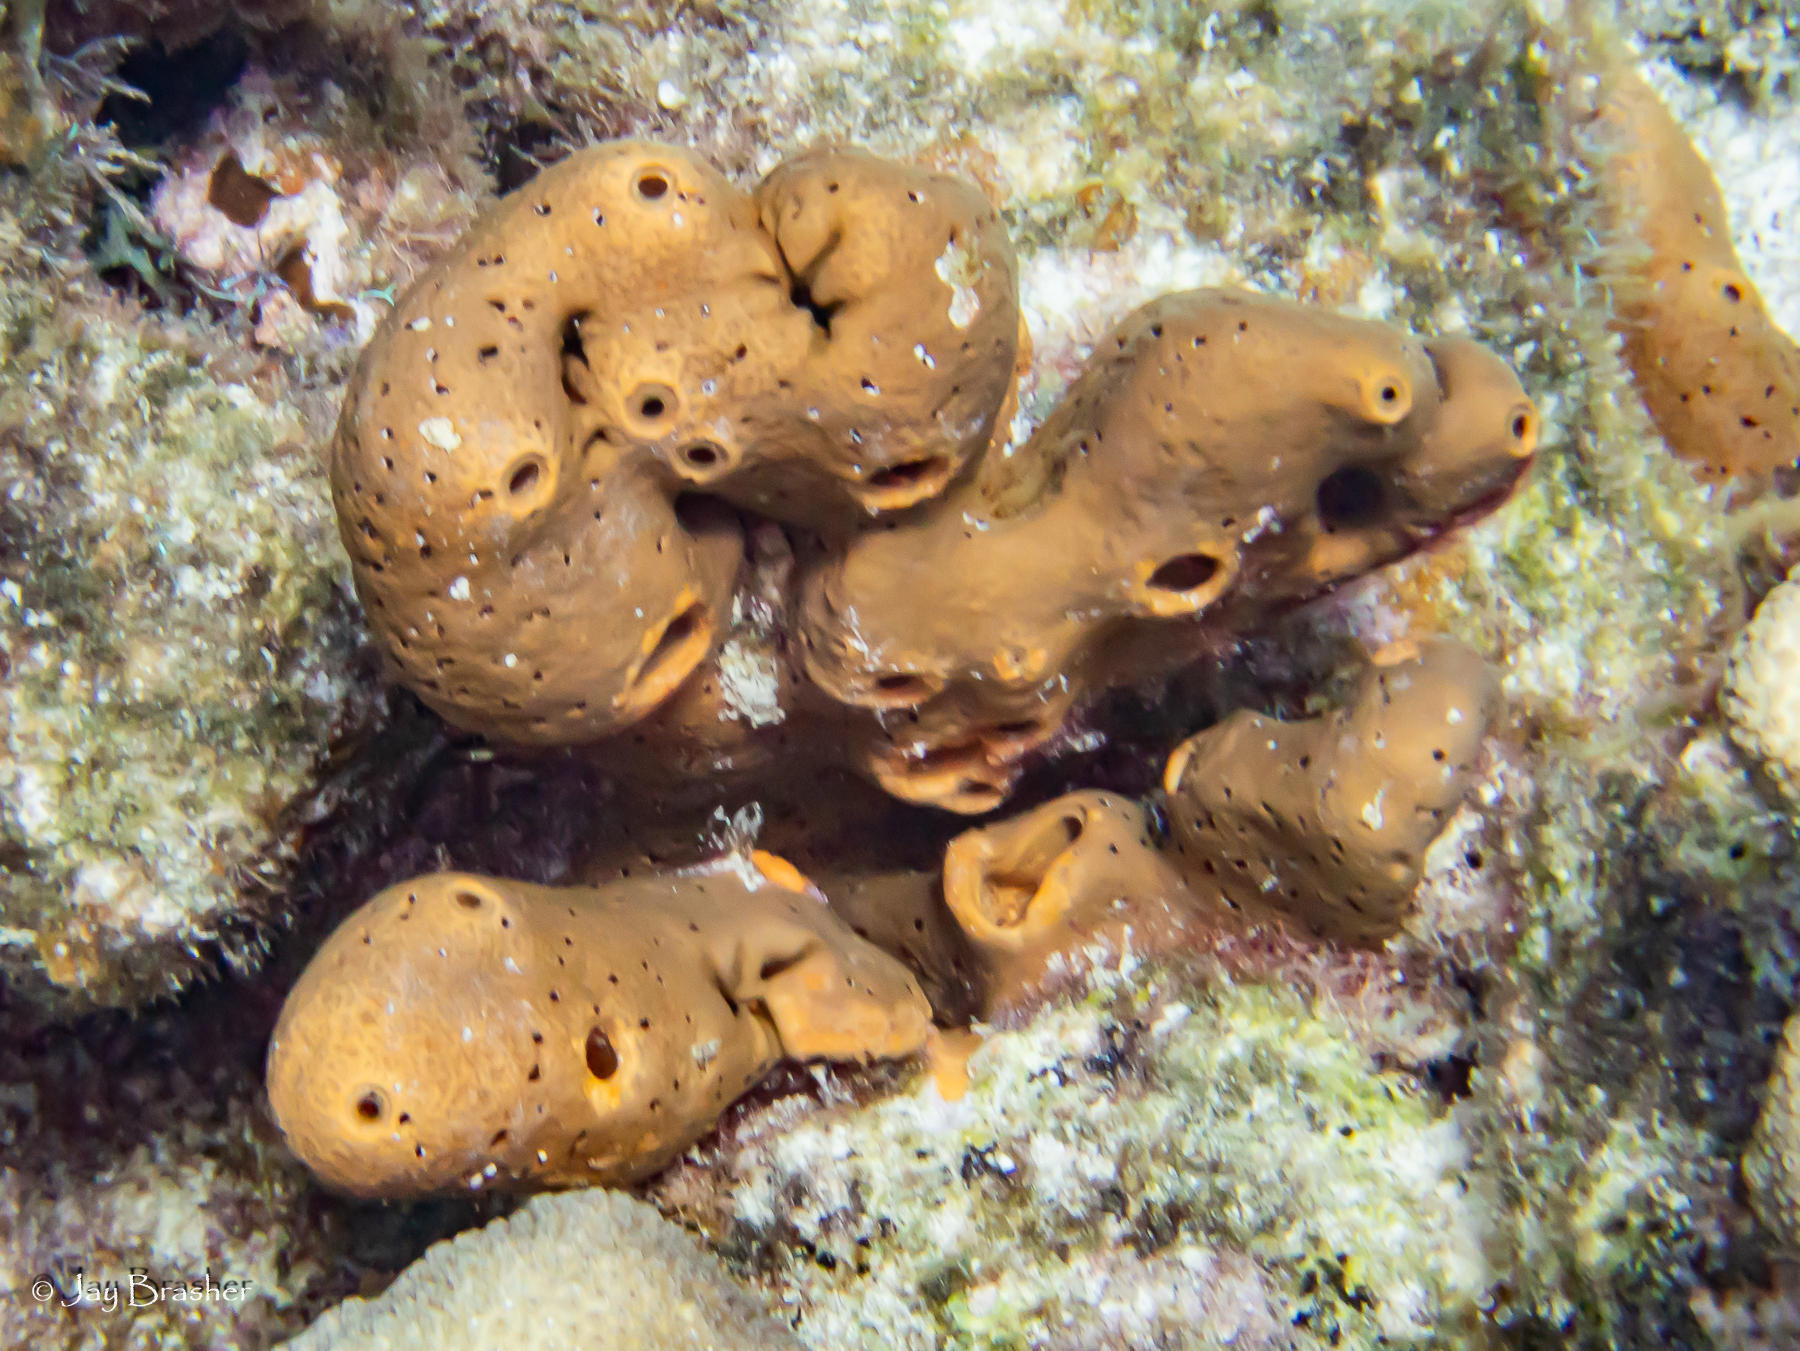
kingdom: Animalia
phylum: Porifera
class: Demospongiae
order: Agelasida
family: Agelasidae
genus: Agelas
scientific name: Agelas conifera
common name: Brown tube sponge
